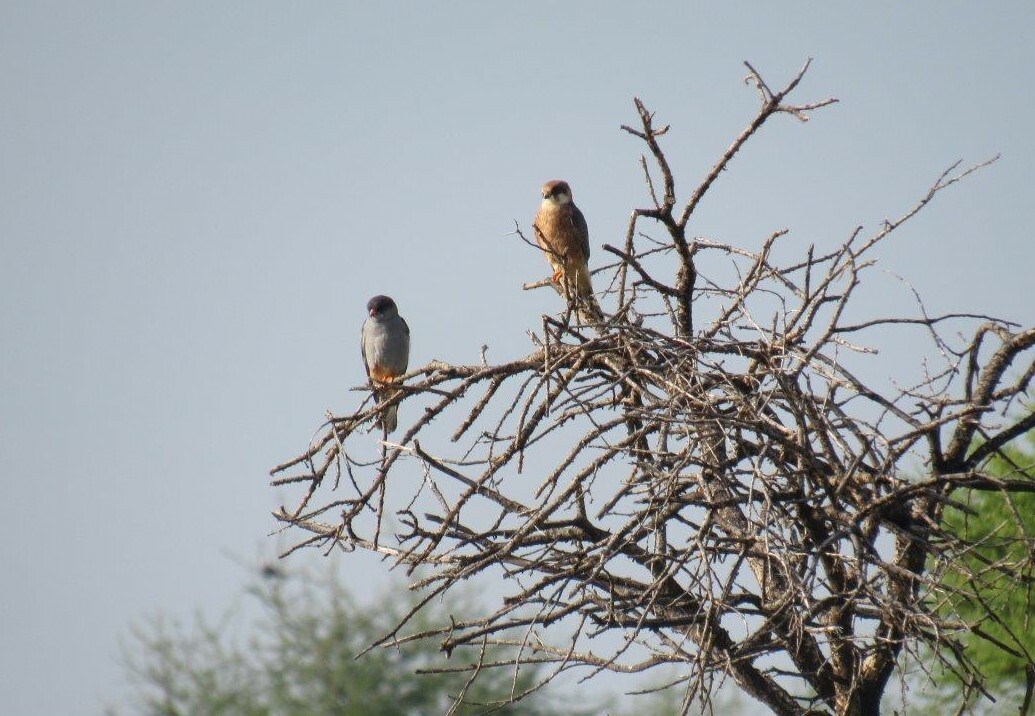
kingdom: Animalia
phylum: Chordata
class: Aves
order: Falconiformes
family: Falconidae
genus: Falco
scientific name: Falco vespertinus
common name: Red-footed falcon
